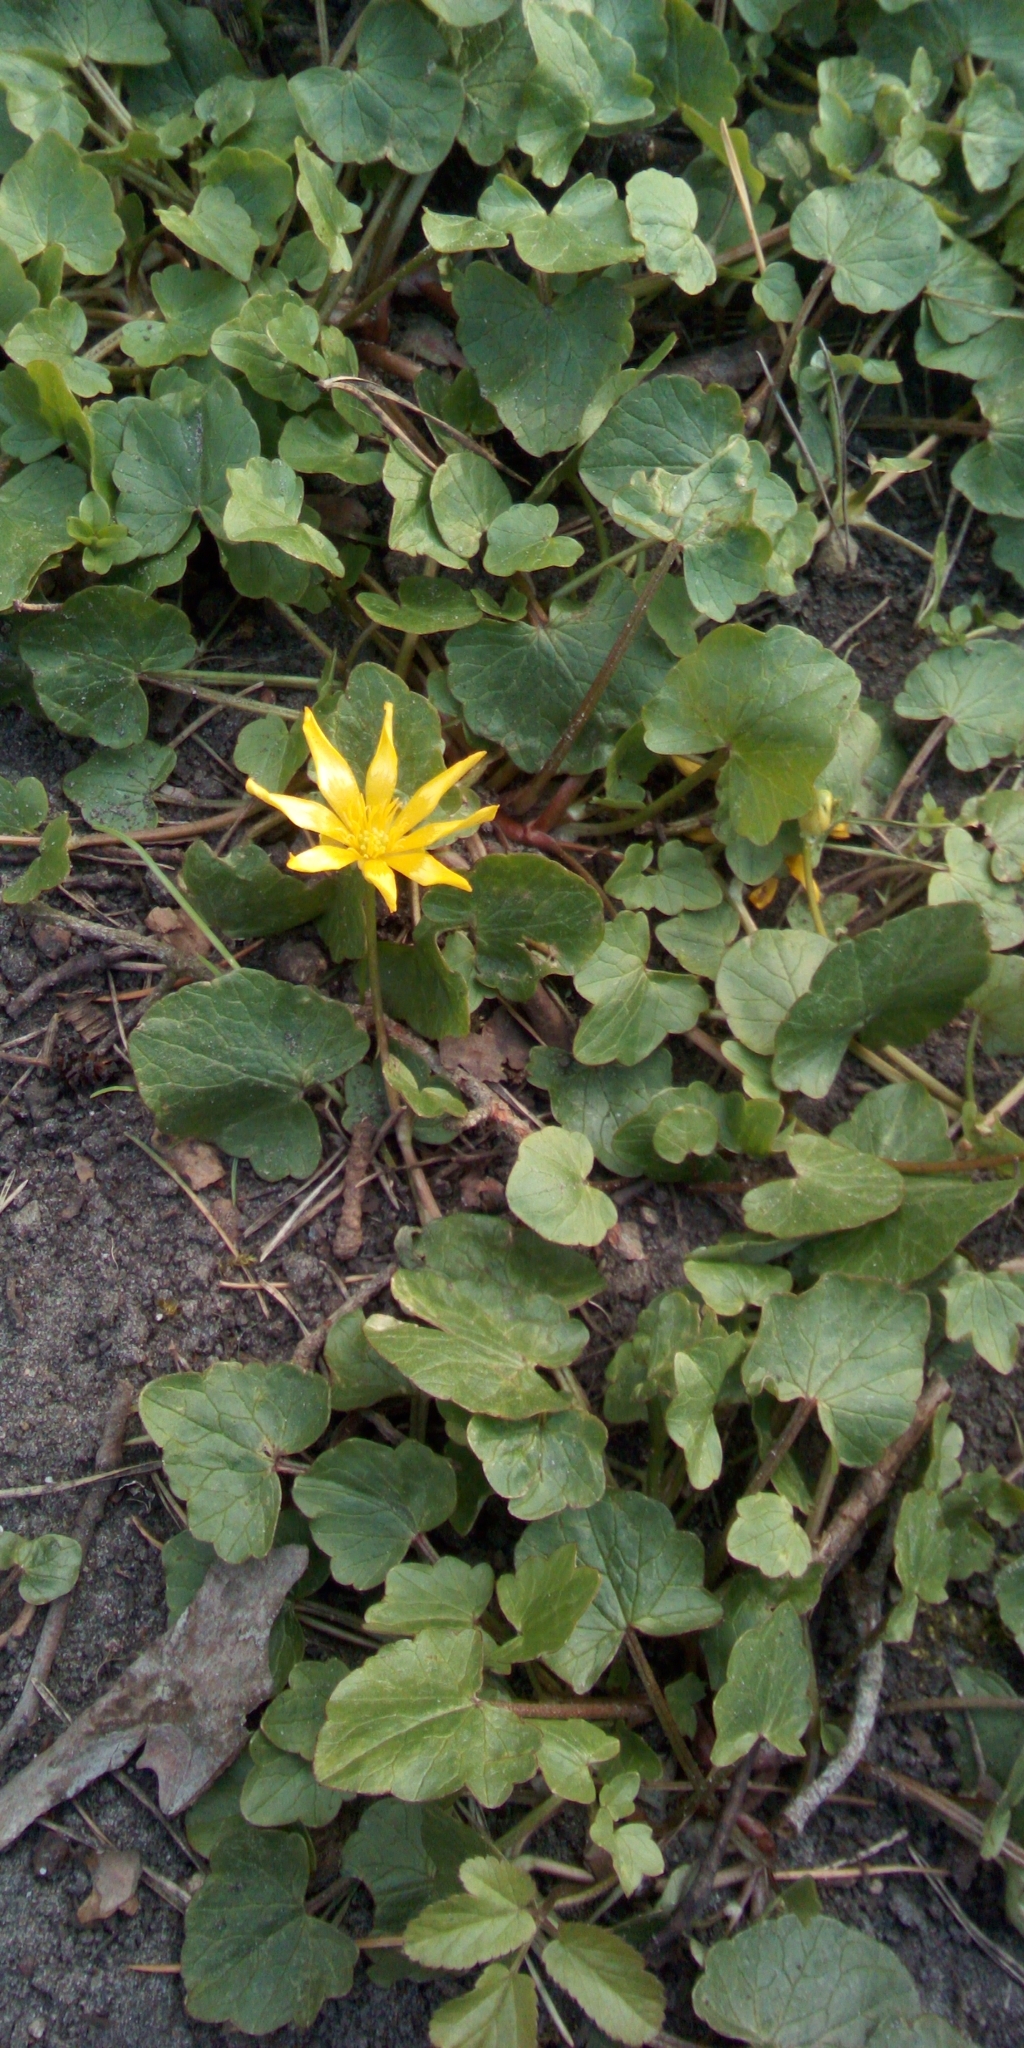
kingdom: Plantae
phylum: Tracheophyta
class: Magnoliopsida
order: Ranunculales
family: Ranunculaceae
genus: Ficaria
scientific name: Ficaria verna
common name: Lesser celandine
